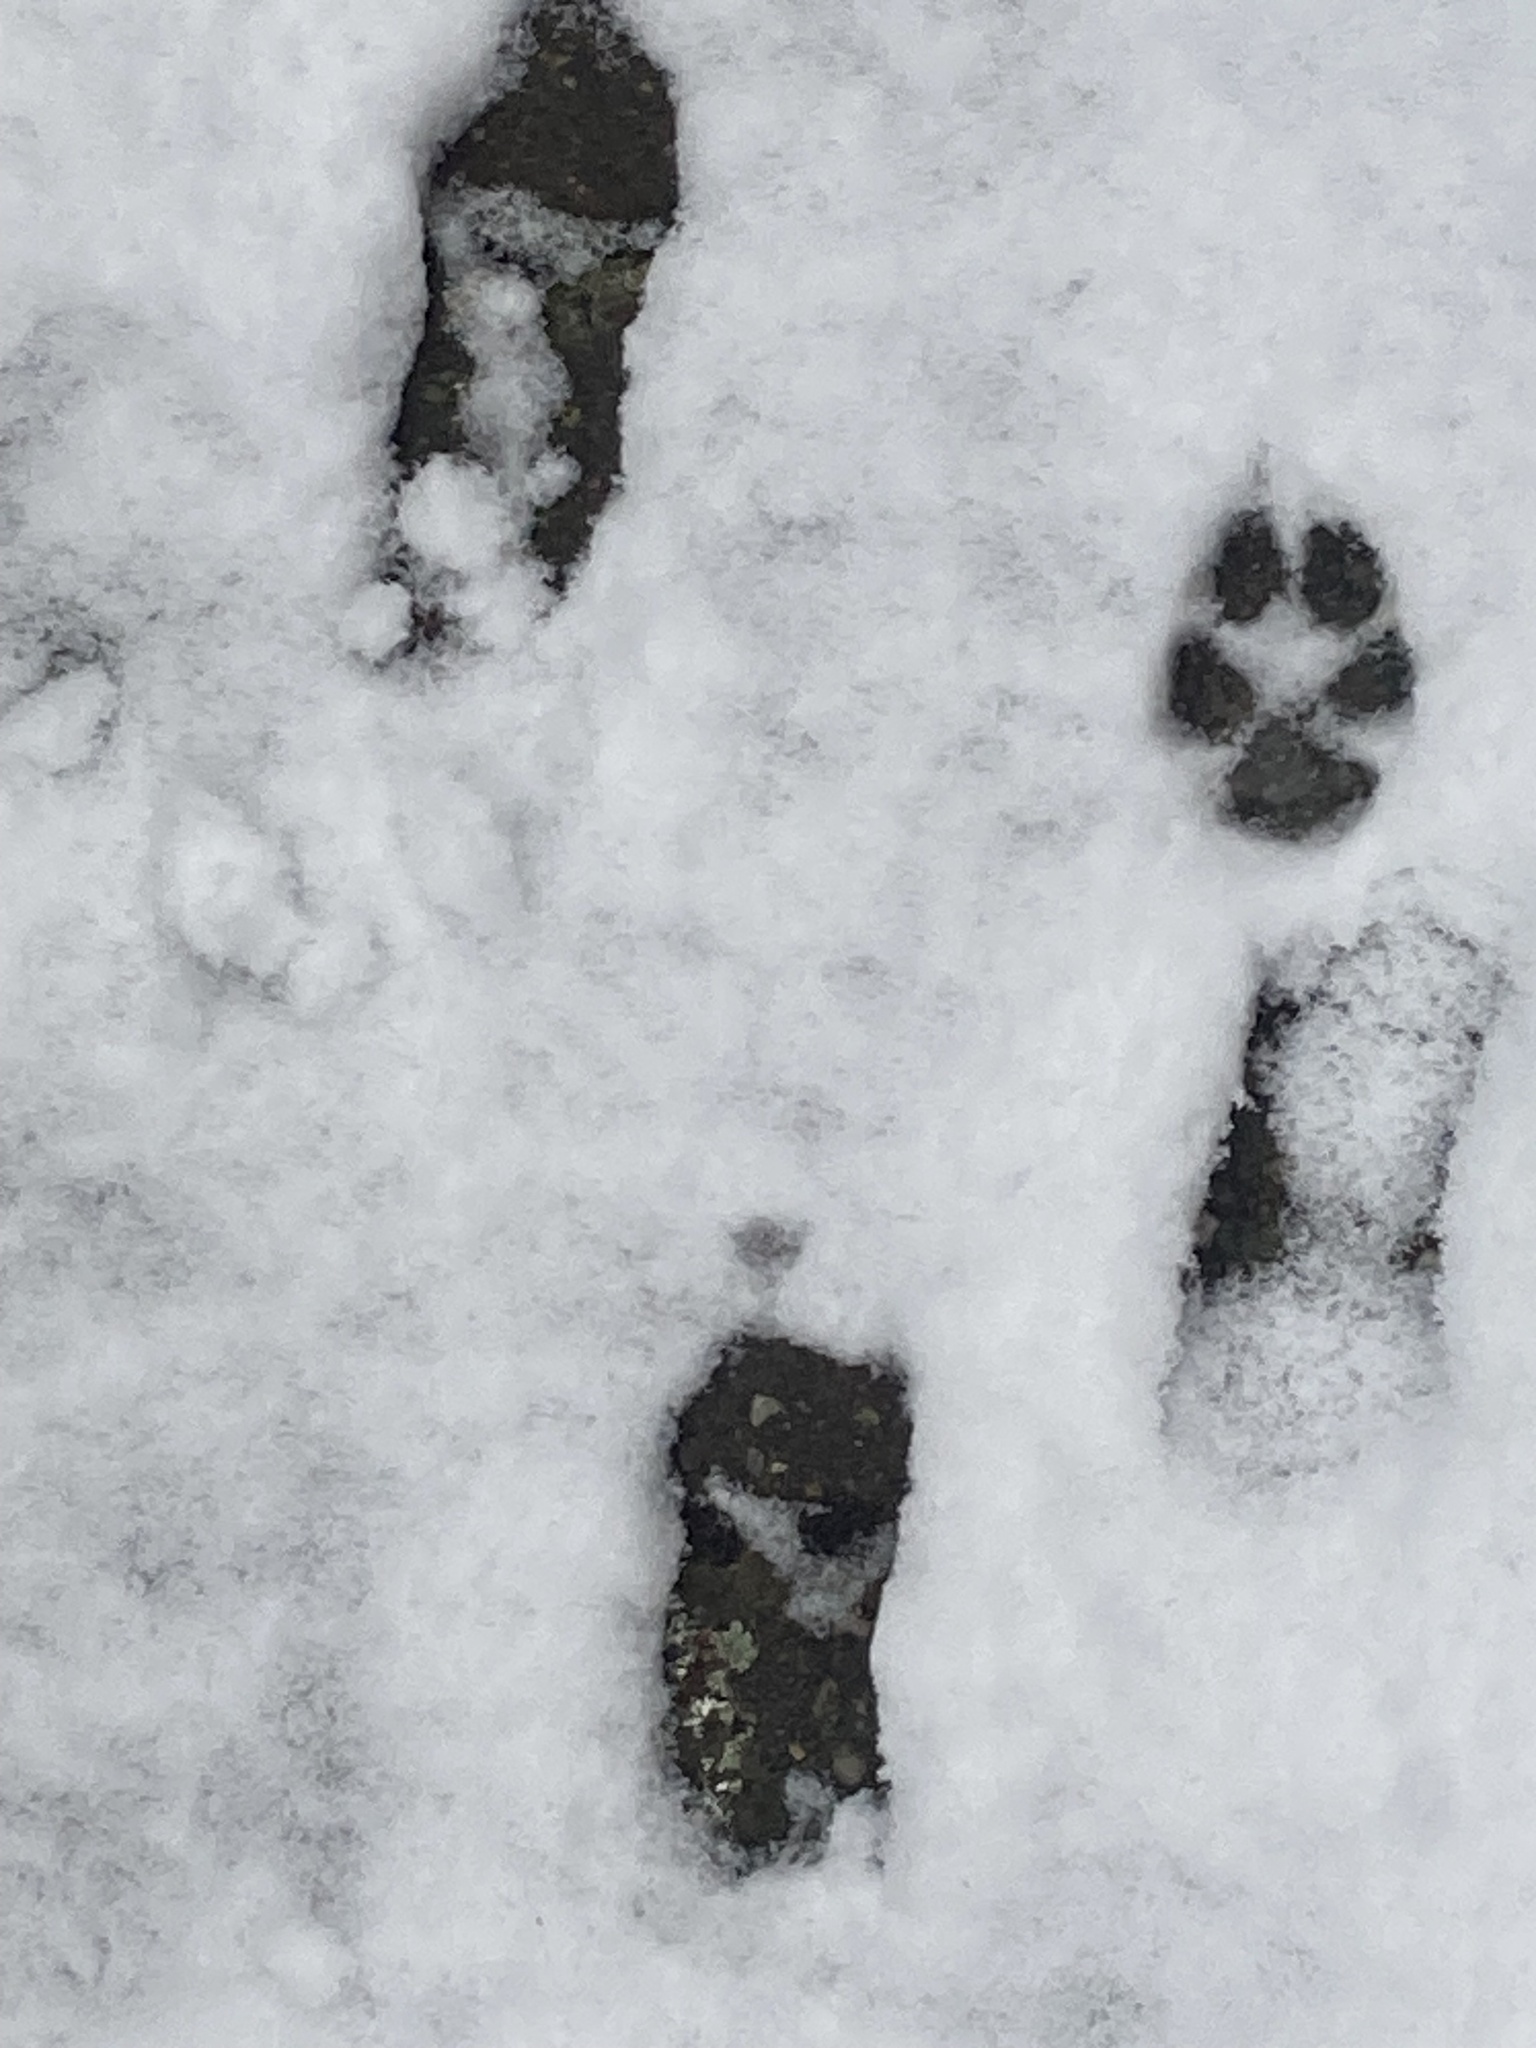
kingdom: Animalia
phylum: Chordata
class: Mammalia
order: Carnivora
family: Canidae
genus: Vulpes
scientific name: Vulpes vulpes
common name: Red fox
